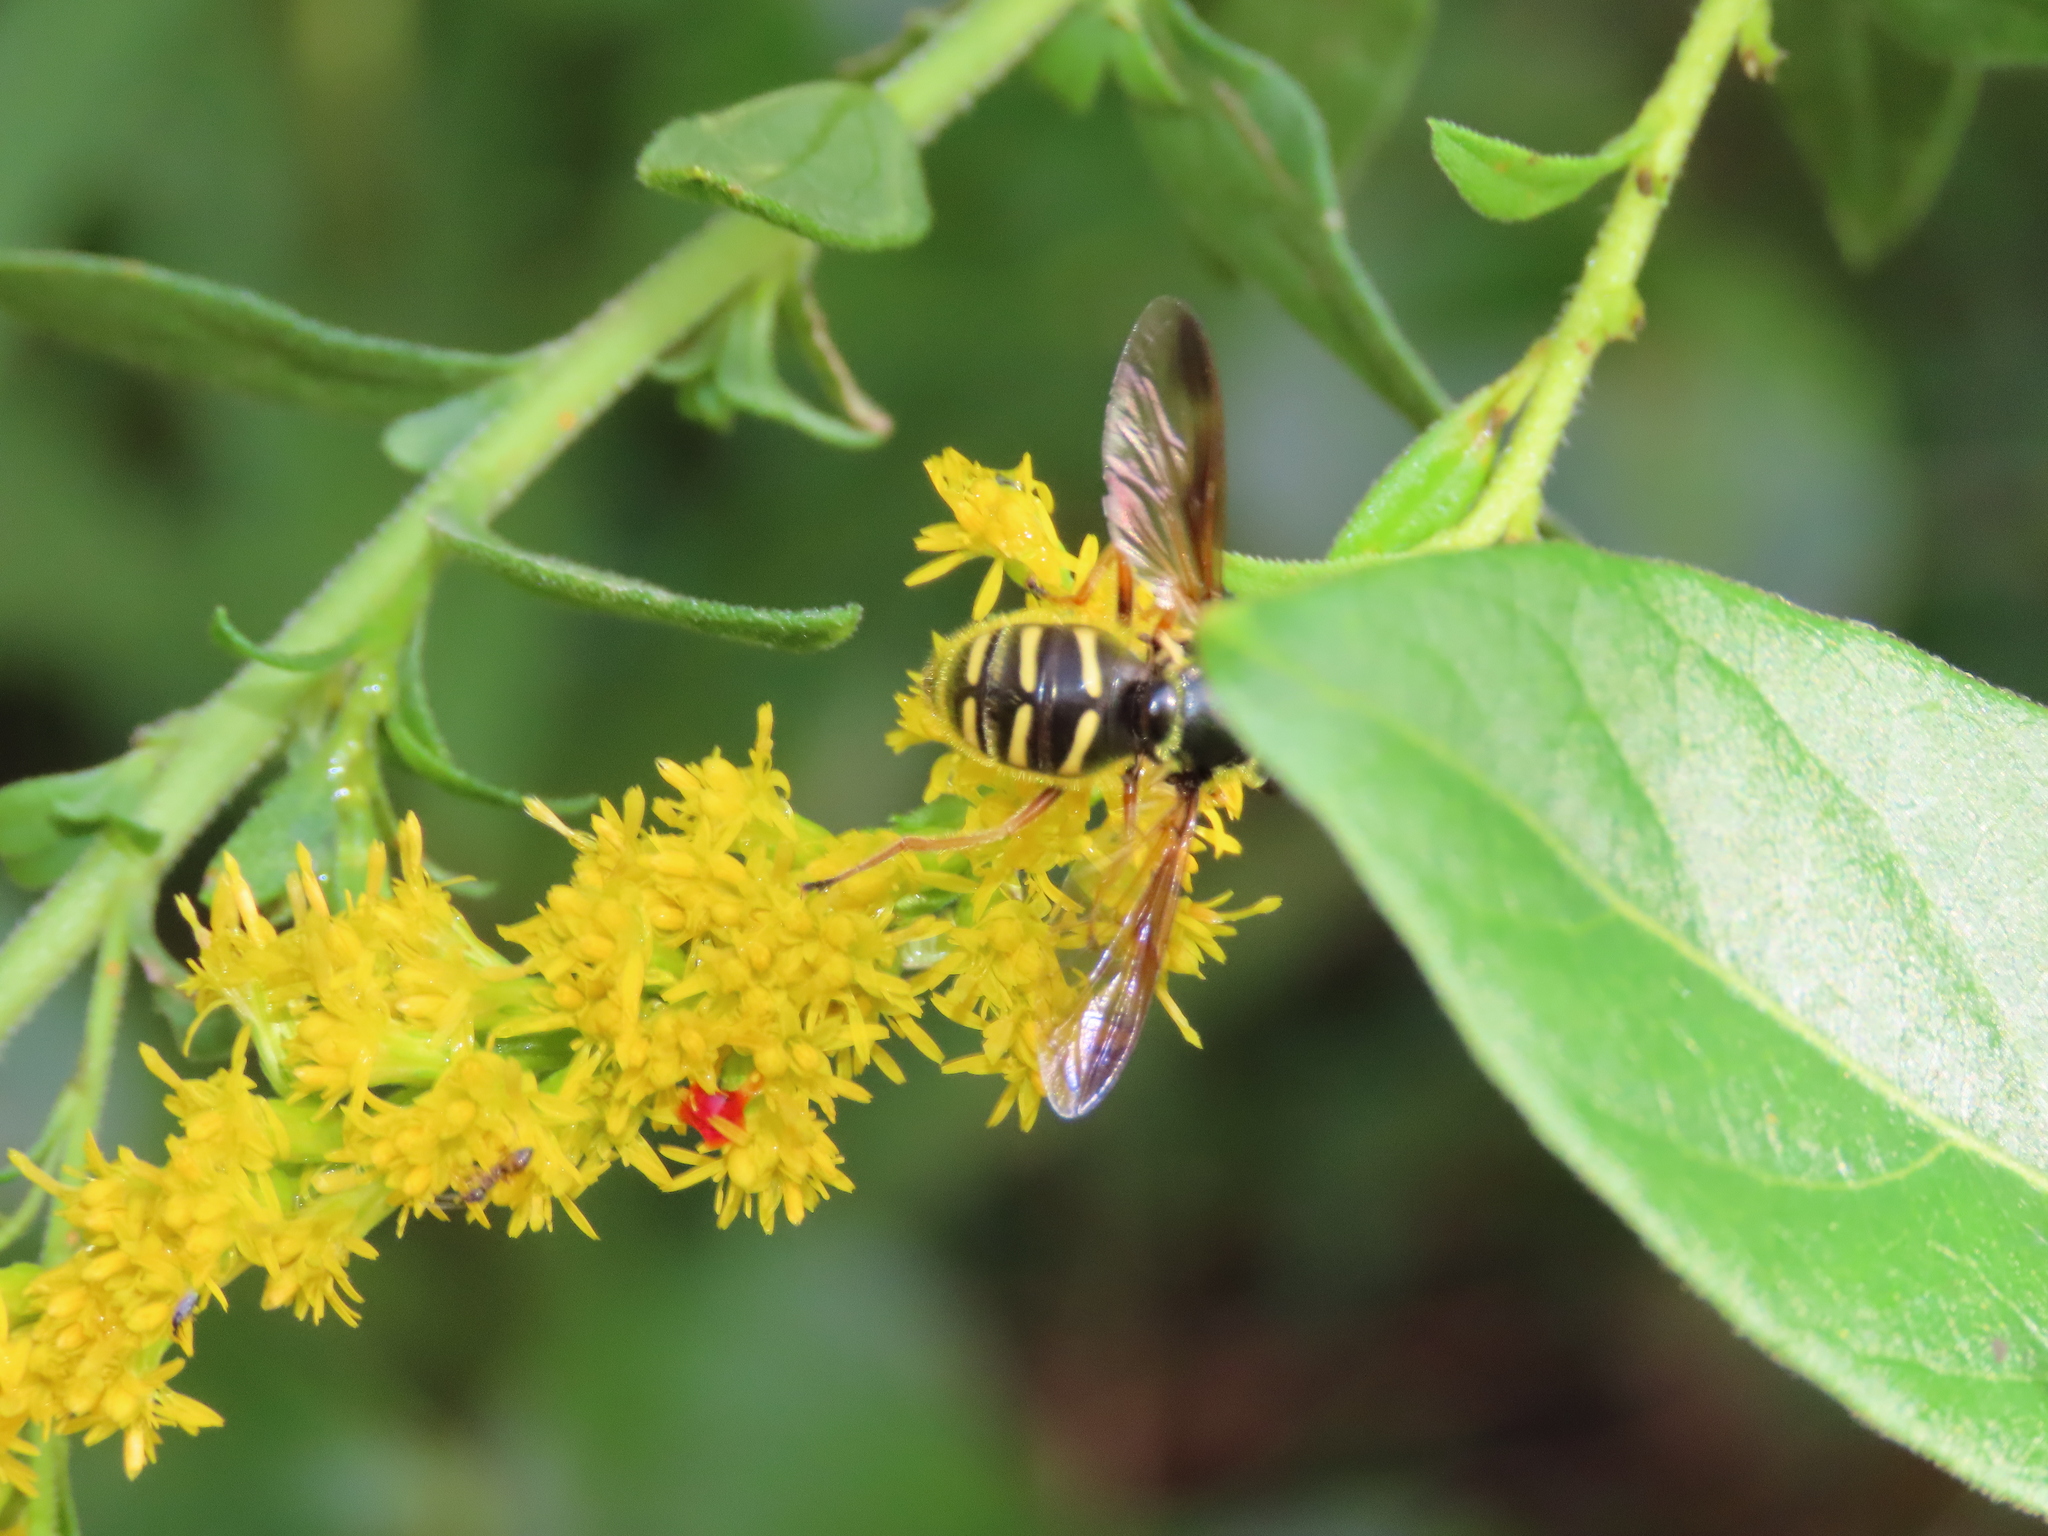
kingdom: Animalia
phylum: Arthropoda
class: Insecta
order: Diptera
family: Syrphidae
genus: Sericomyia
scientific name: Sericomyia chrysotoxoides
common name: Oblique-banded pond fly
